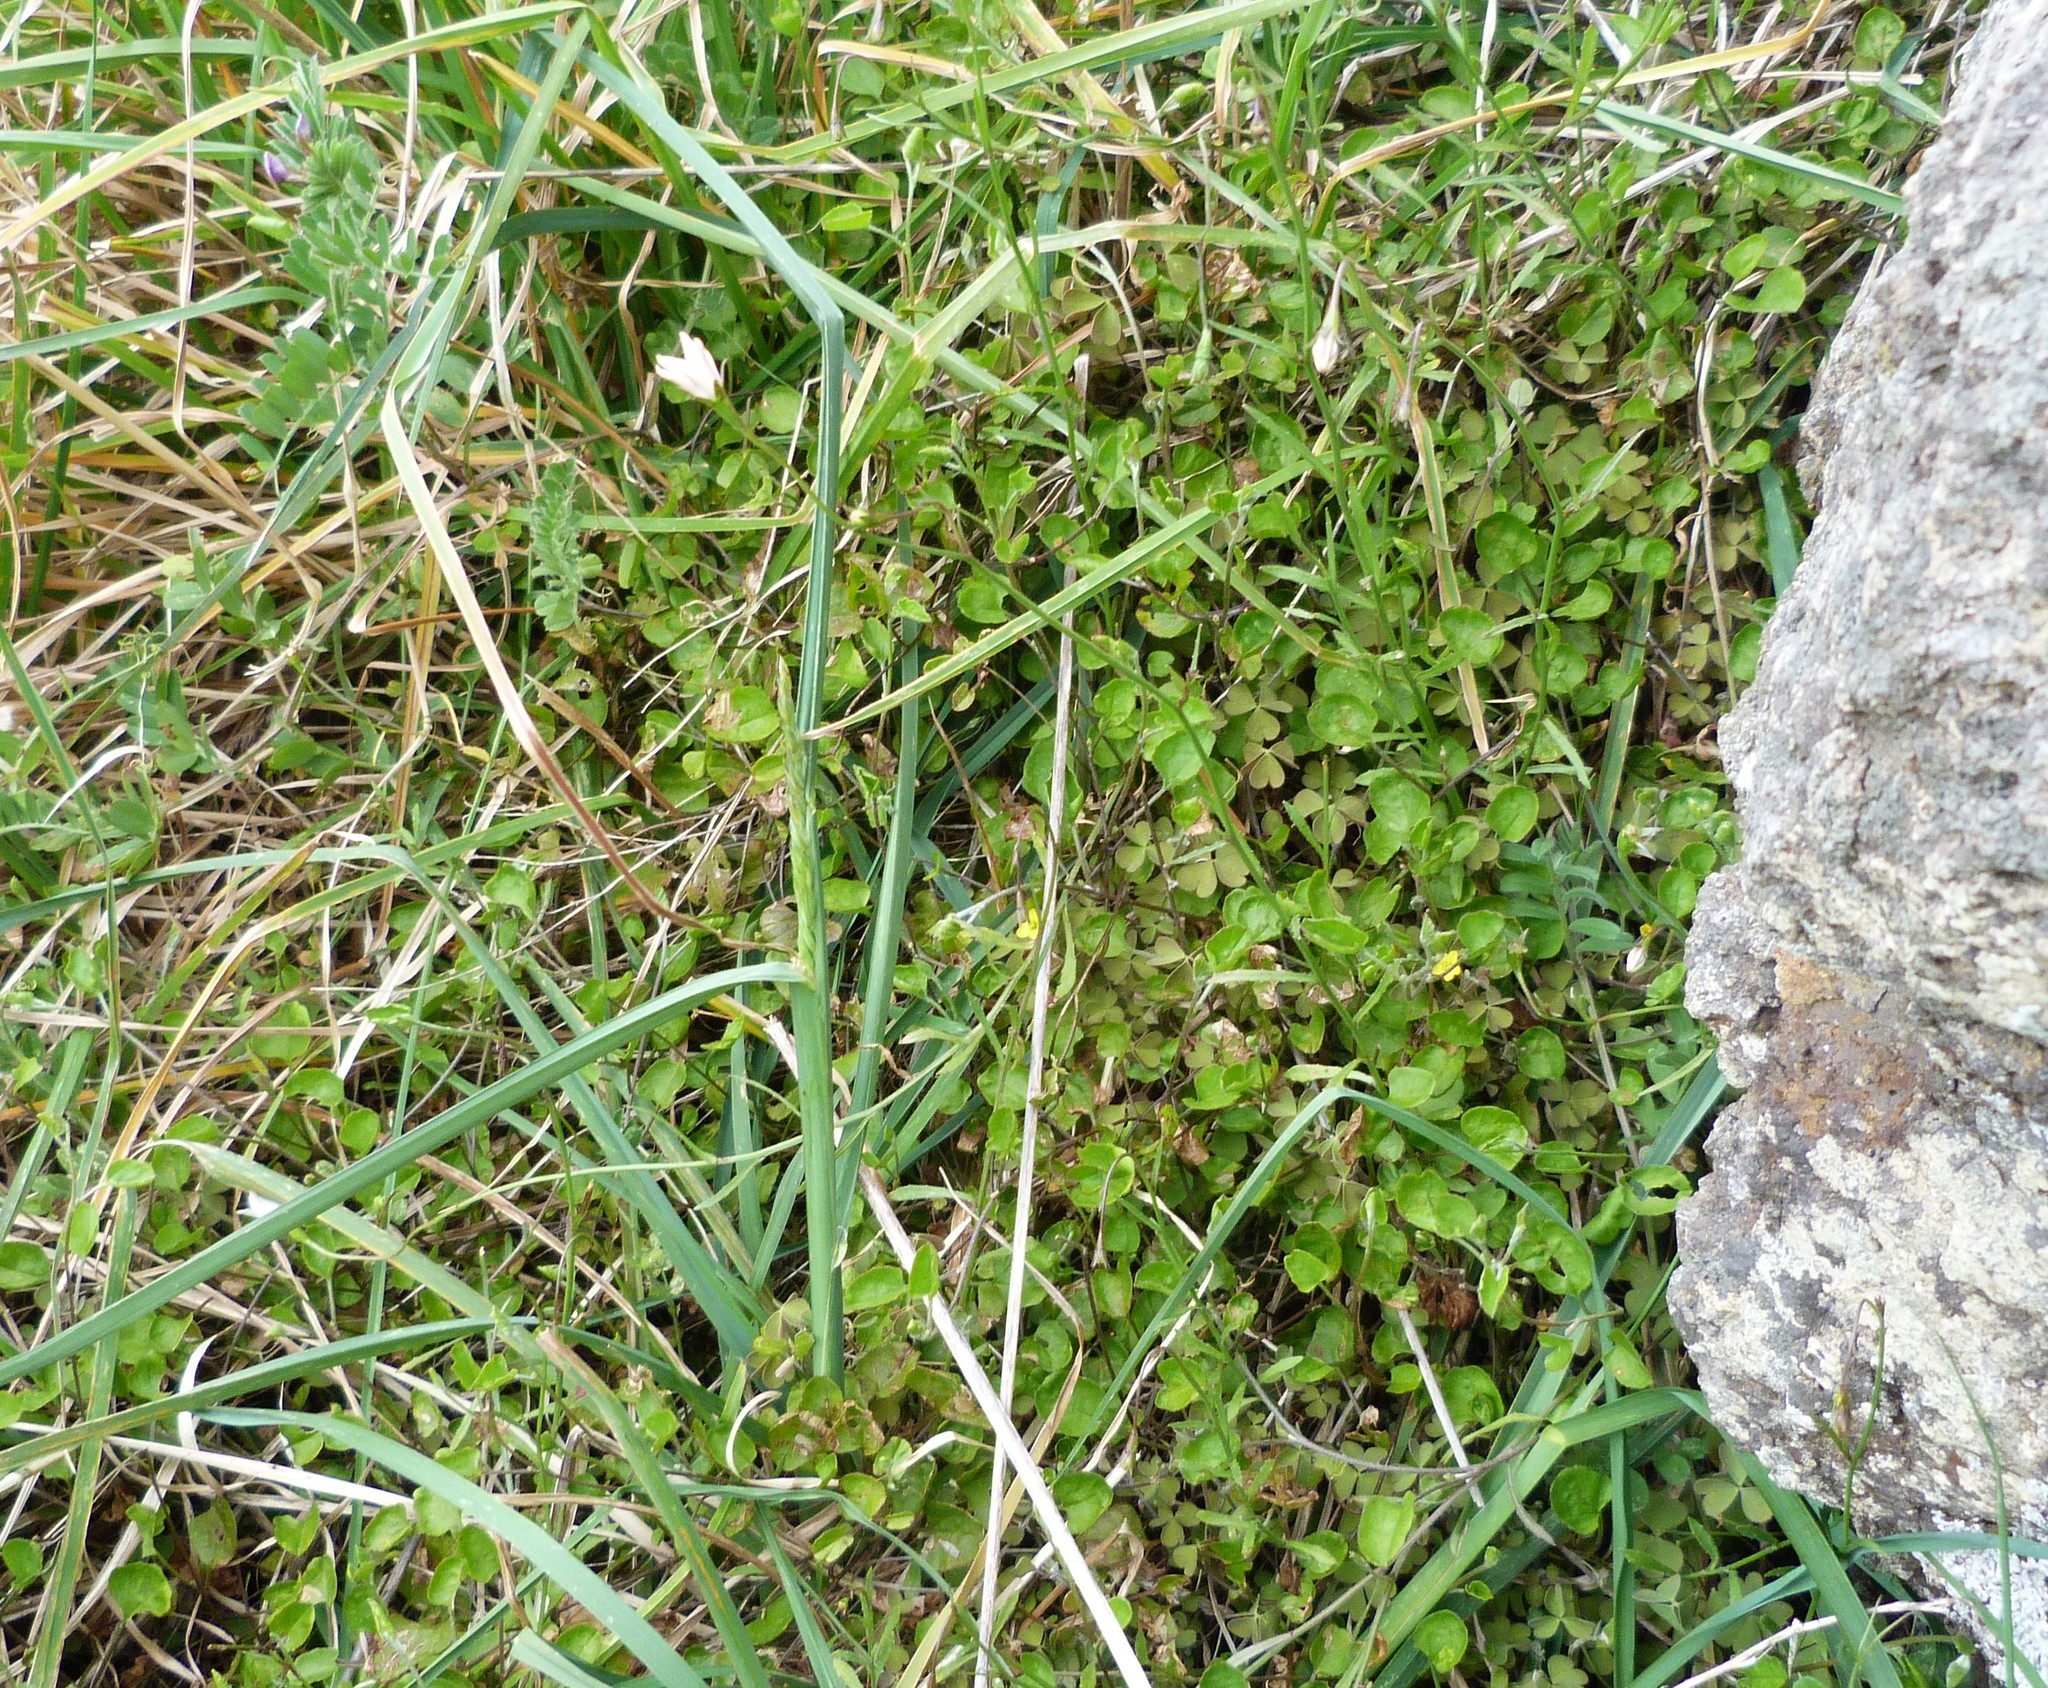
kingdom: Plantae
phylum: Tracheophyta
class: Magnoliopsida
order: Solanales
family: Convolvulaceae
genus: Calystegia
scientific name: Calystegia tuguriorum
